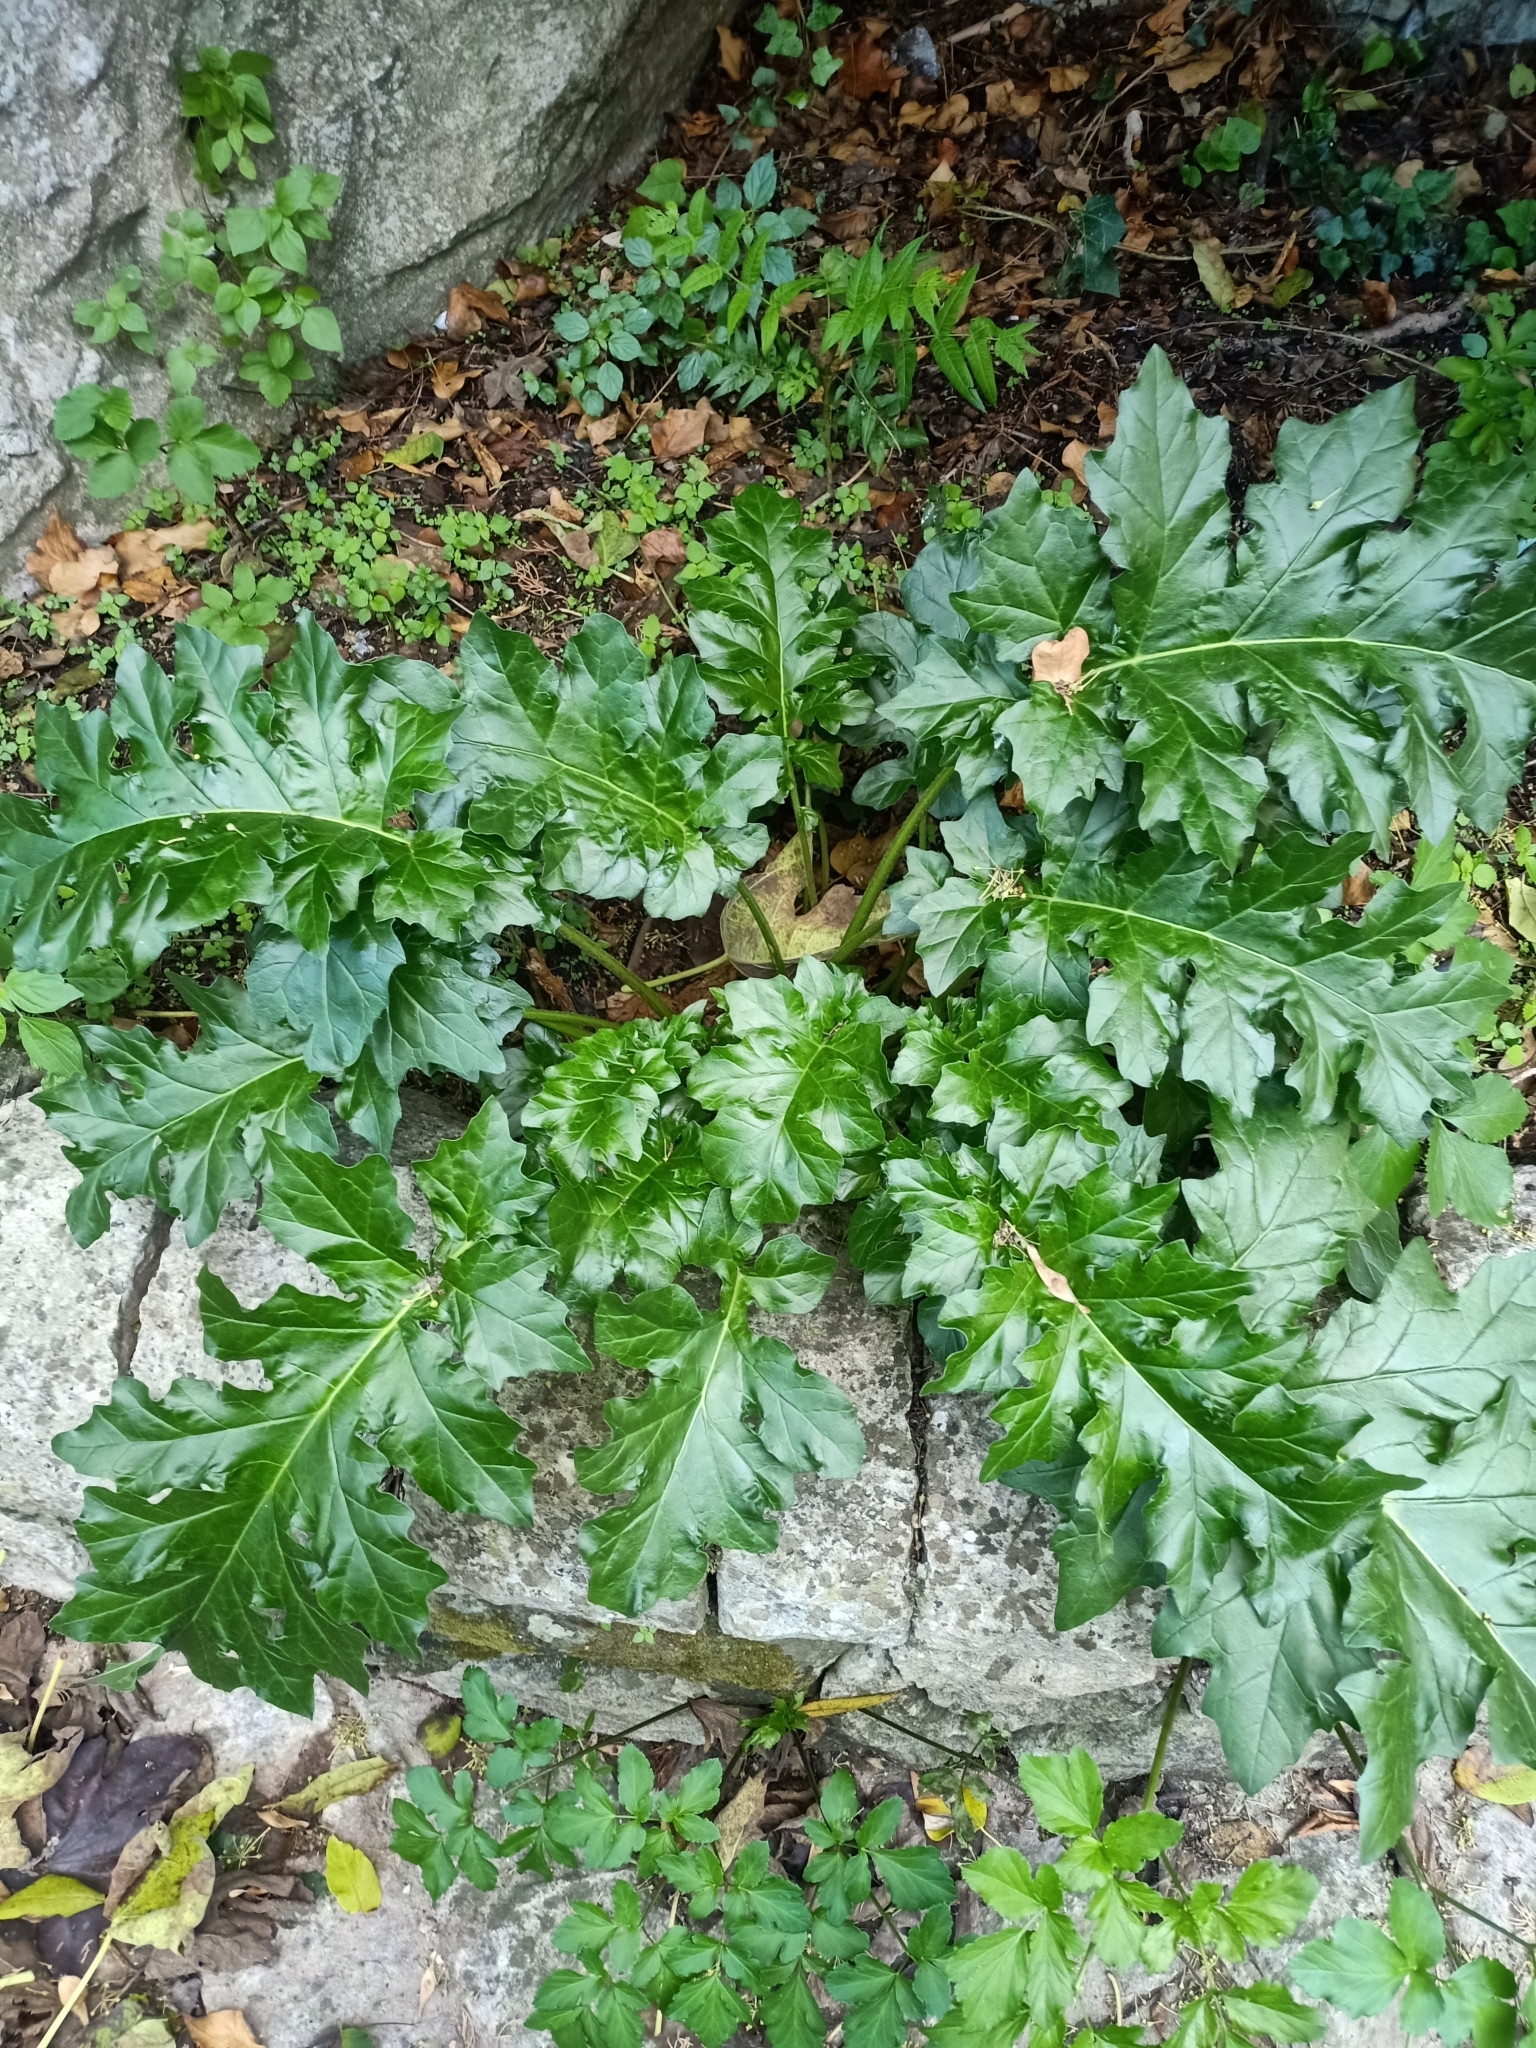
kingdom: Plantae
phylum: Tracheophyta
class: Magnoliopsida
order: Lamiales
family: Acanthaceae
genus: Acanthus
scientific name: Acanthus mollis
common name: Bear's-breech
